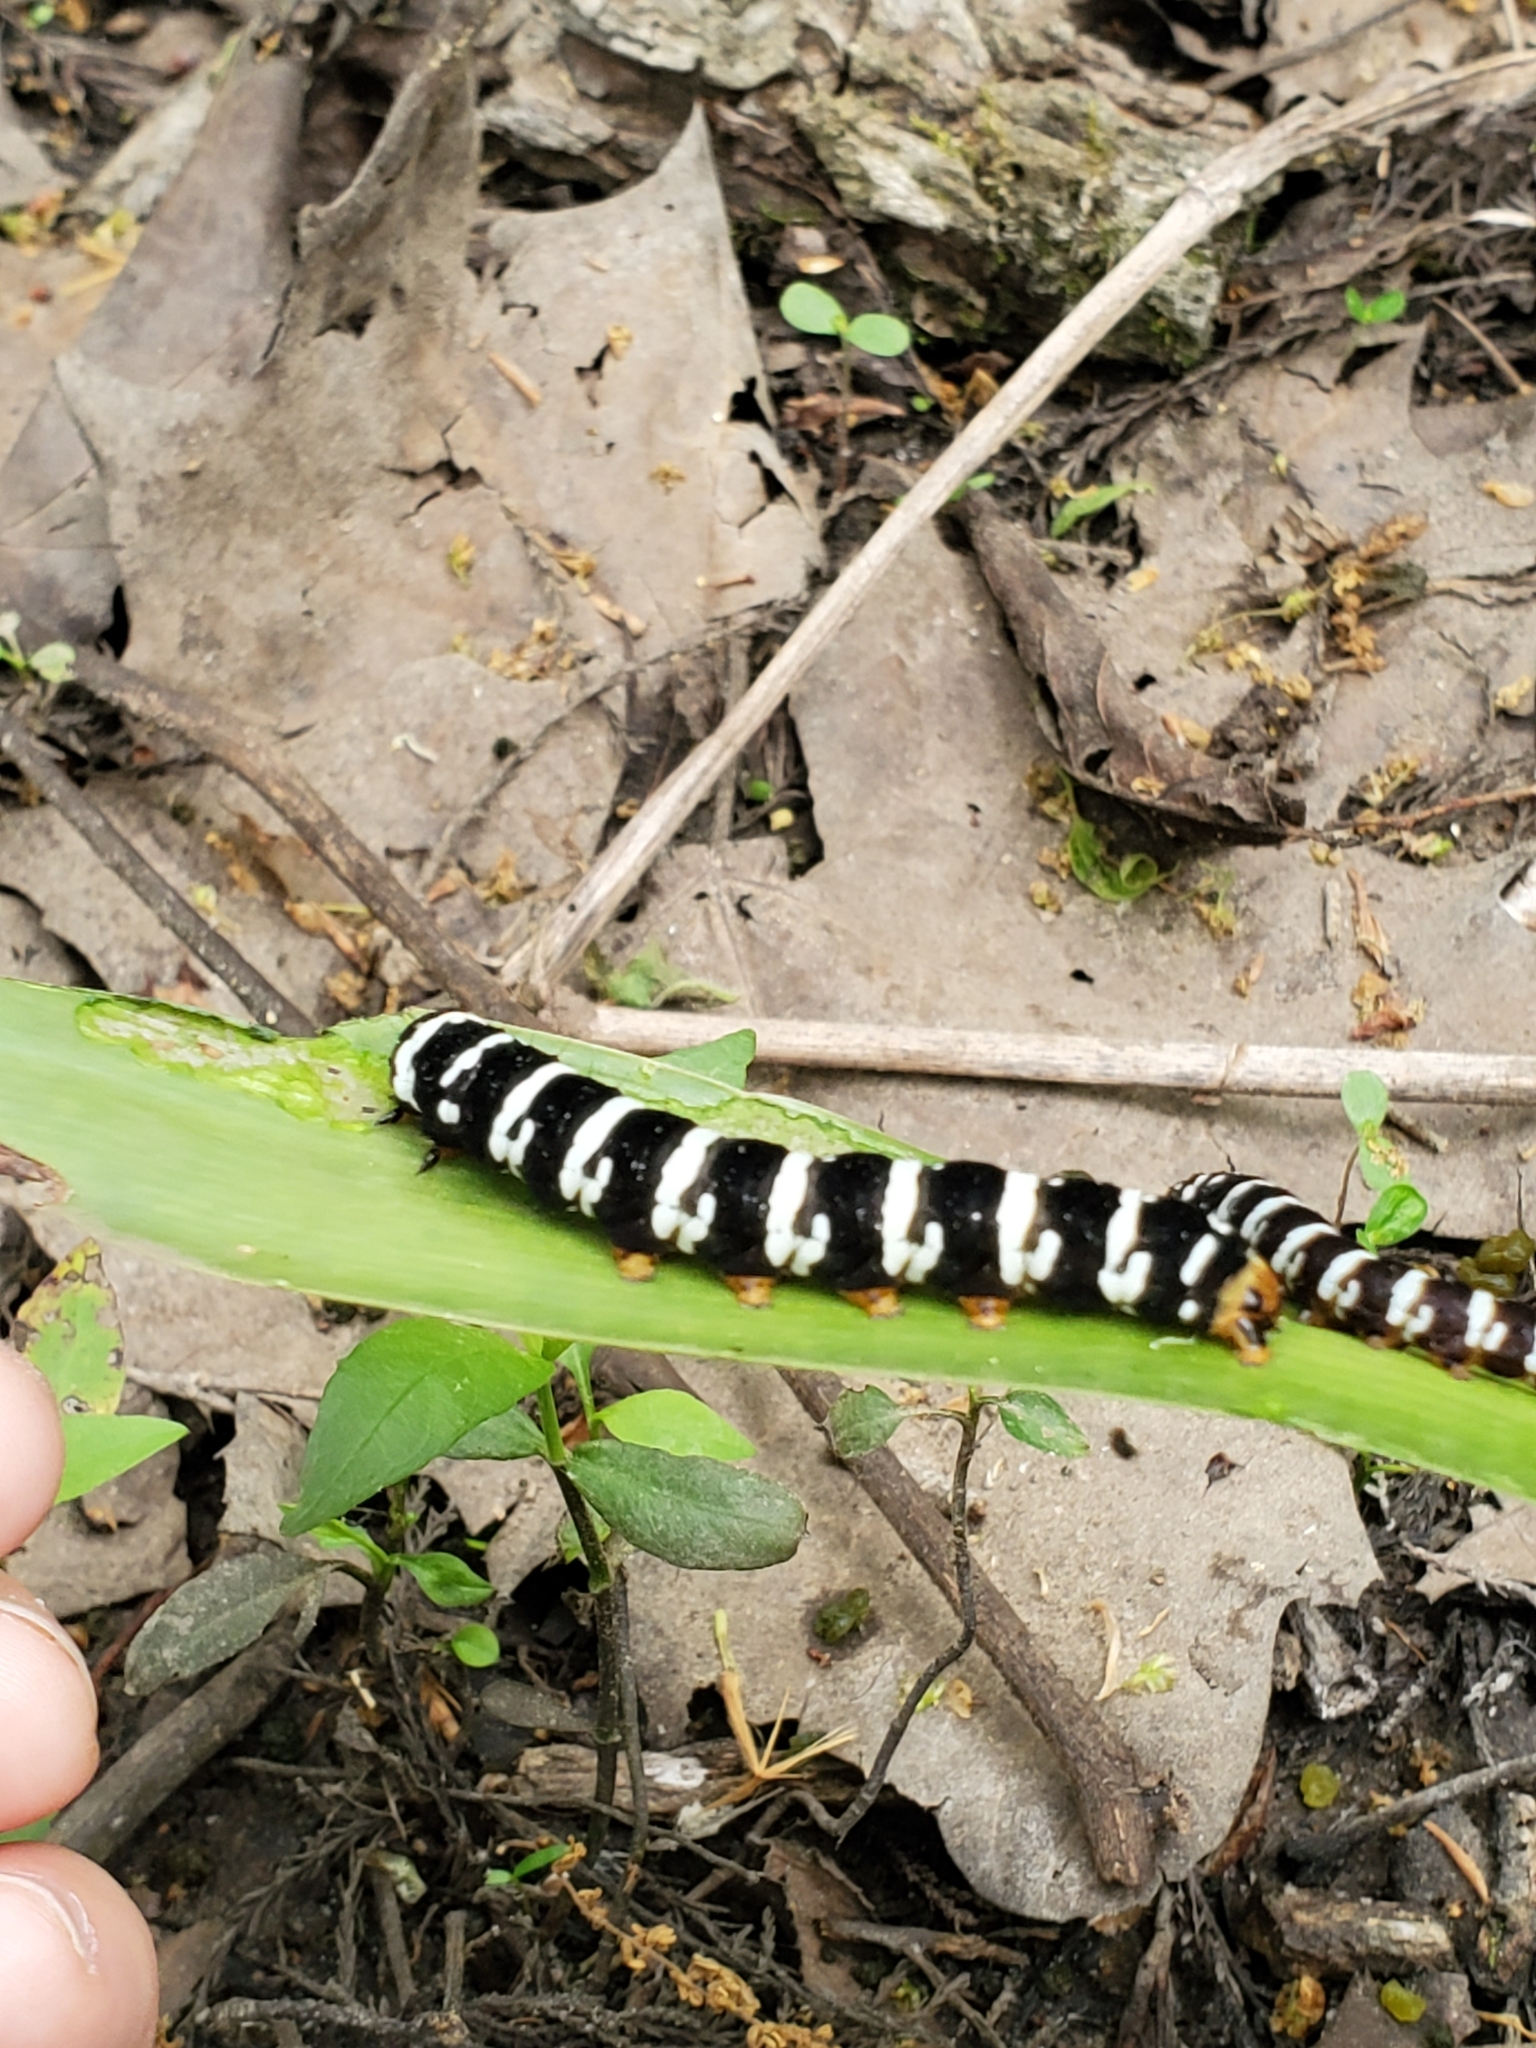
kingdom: Animalia
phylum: Arthropoda
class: Insecta
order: Lepidoptera
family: Noctuidae
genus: Xanthopastis
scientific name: Xanthopastis regnatrix
